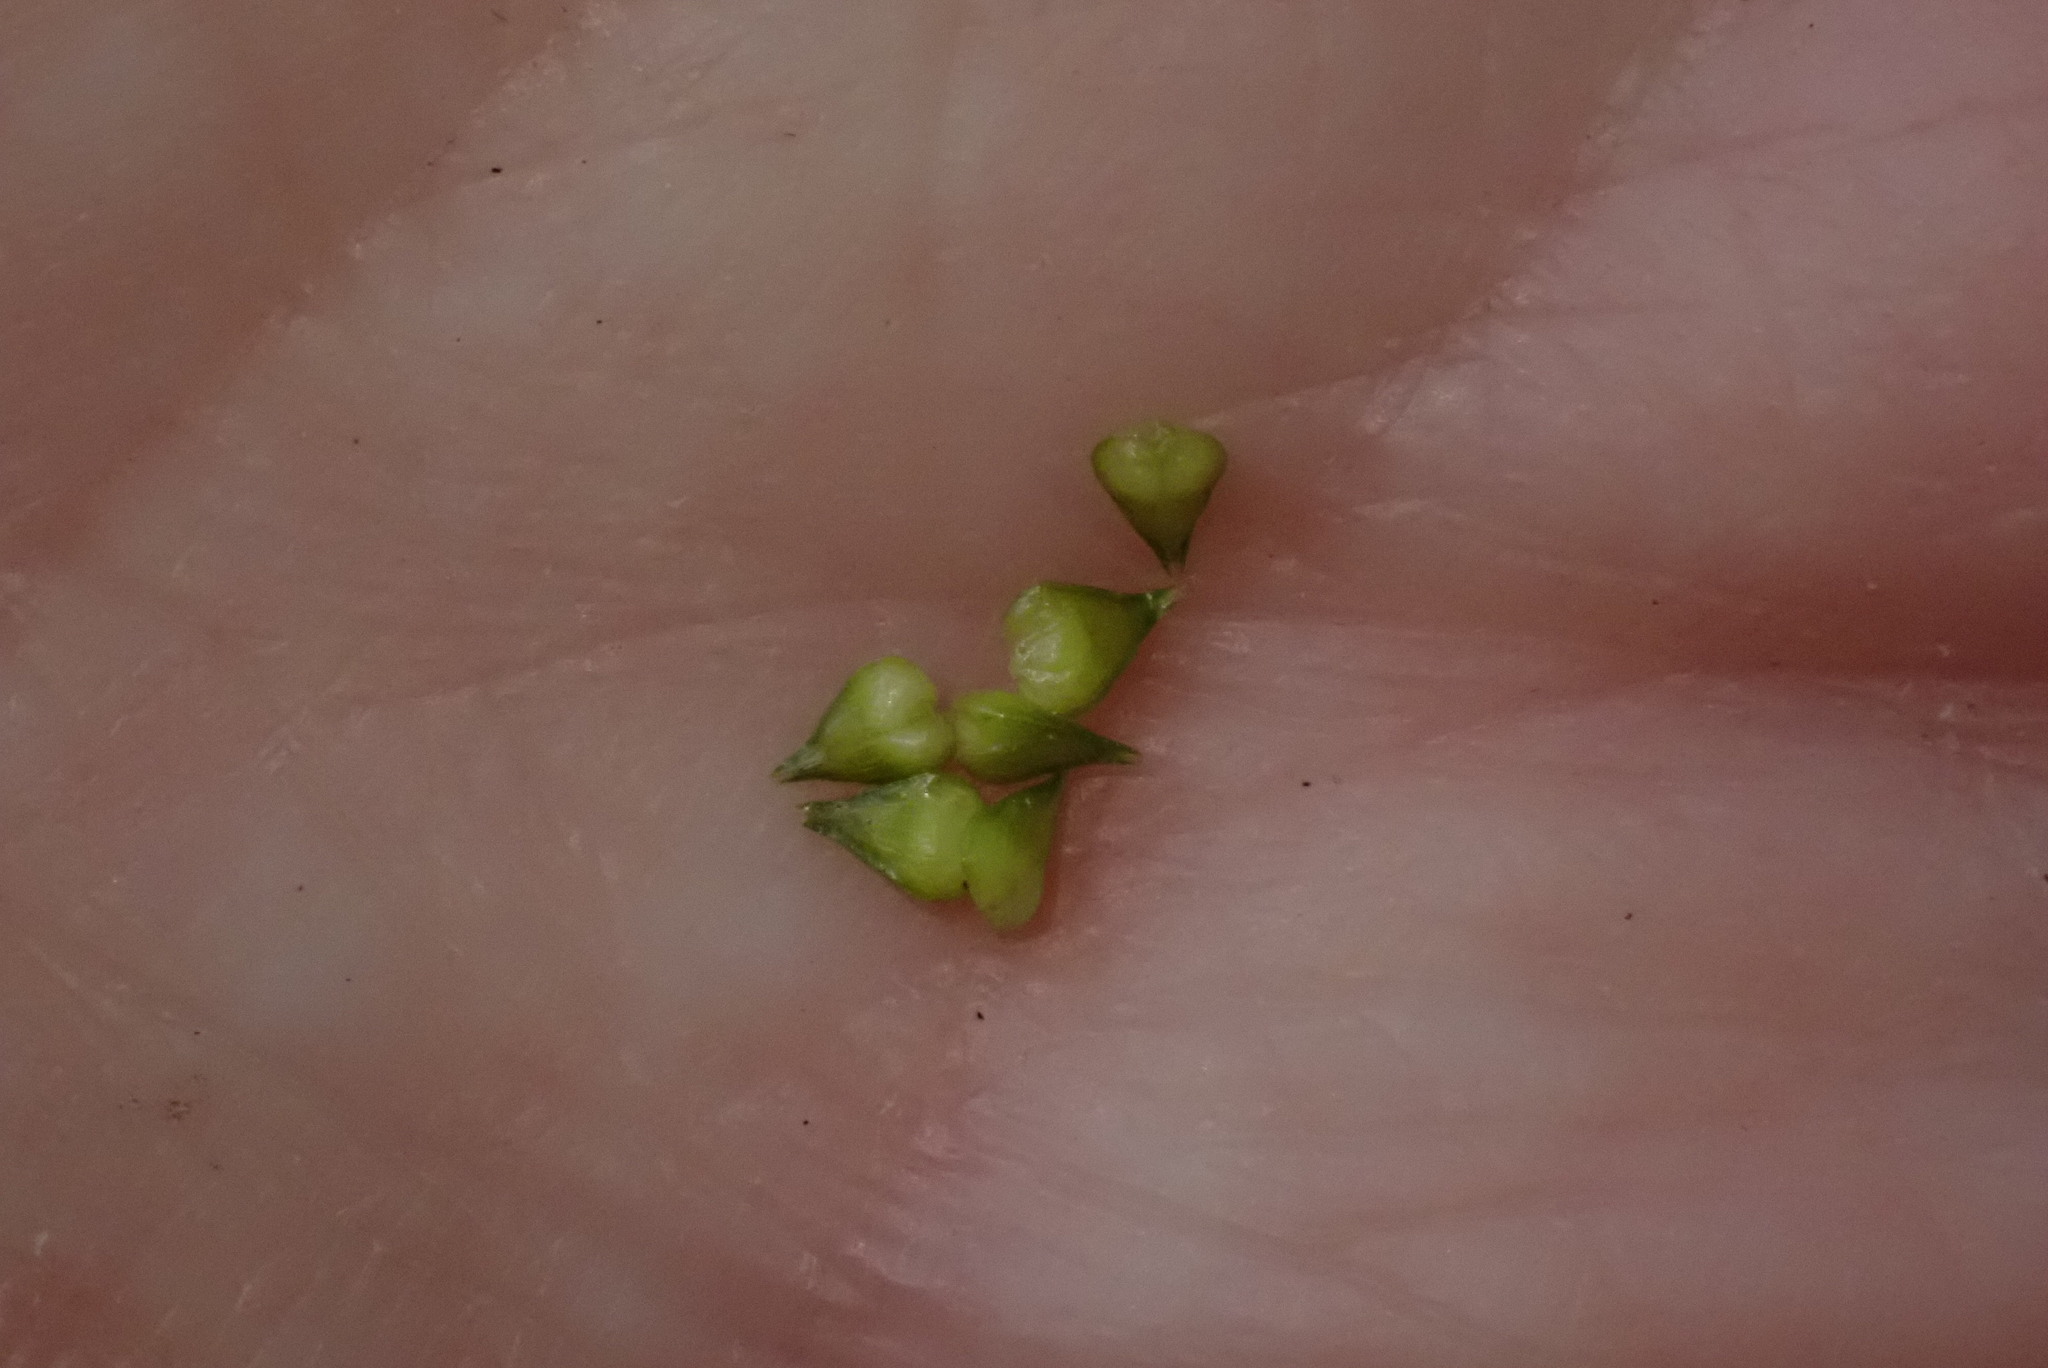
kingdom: Plantae
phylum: Tracheophyta
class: Liliopsida
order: Poales
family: Cyperaceae
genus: Carex
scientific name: Carex atlantica
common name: Atlantic sedge
